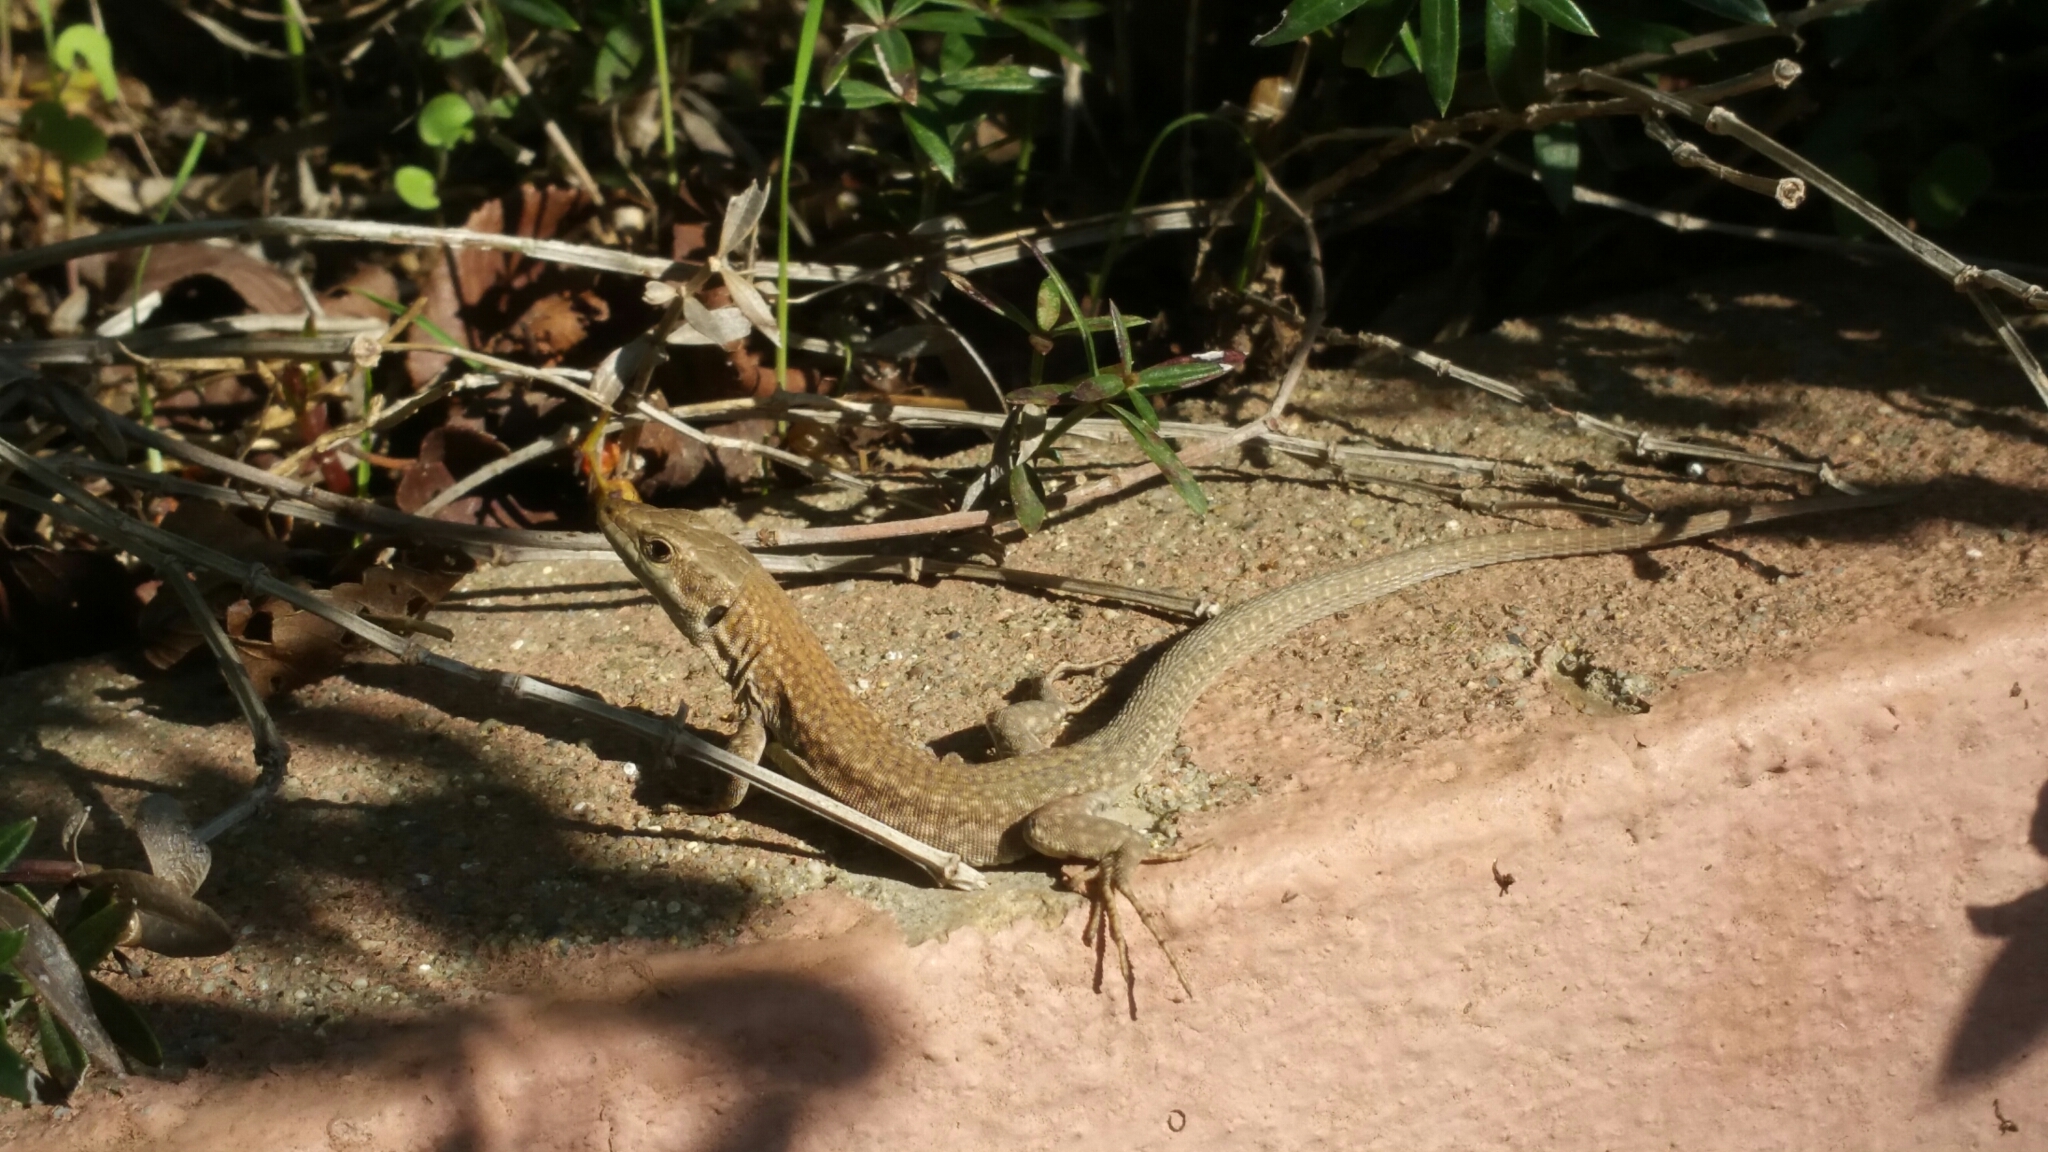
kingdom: Animalia
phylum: Chordata
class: Squamata
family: Lacertidae
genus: Podarcis
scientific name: Podarcis liolepis
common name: Catalonian wall lizard
